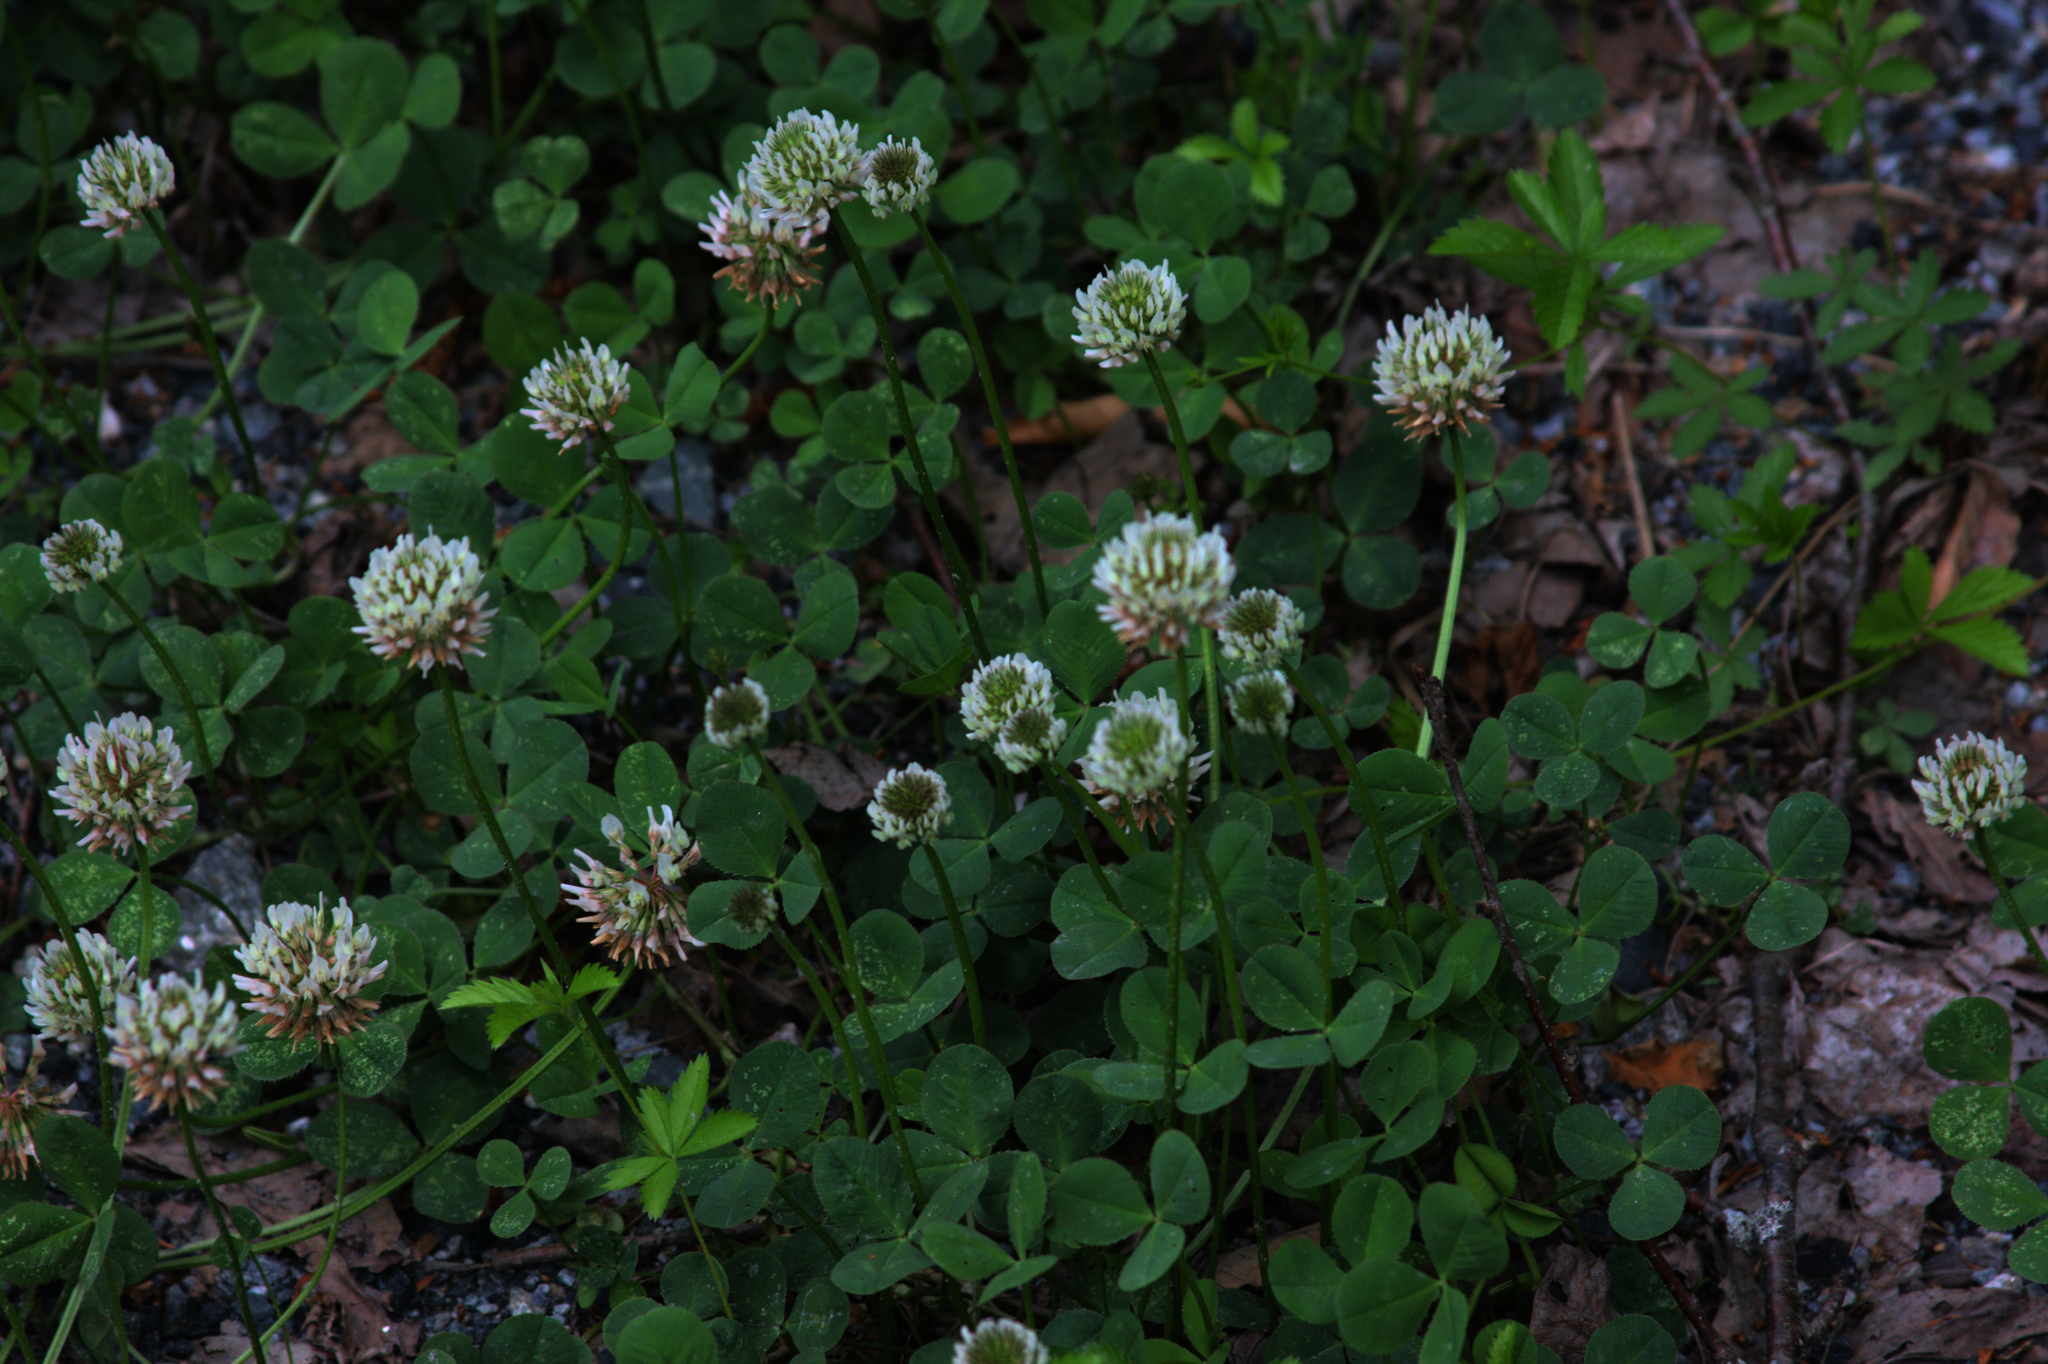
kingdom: Plantae
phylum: Tracheophyta
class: Magnoliopsida
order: Fabales
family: Fabaceae
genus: Trifolium
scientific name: Trifolium repens
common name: White clover
